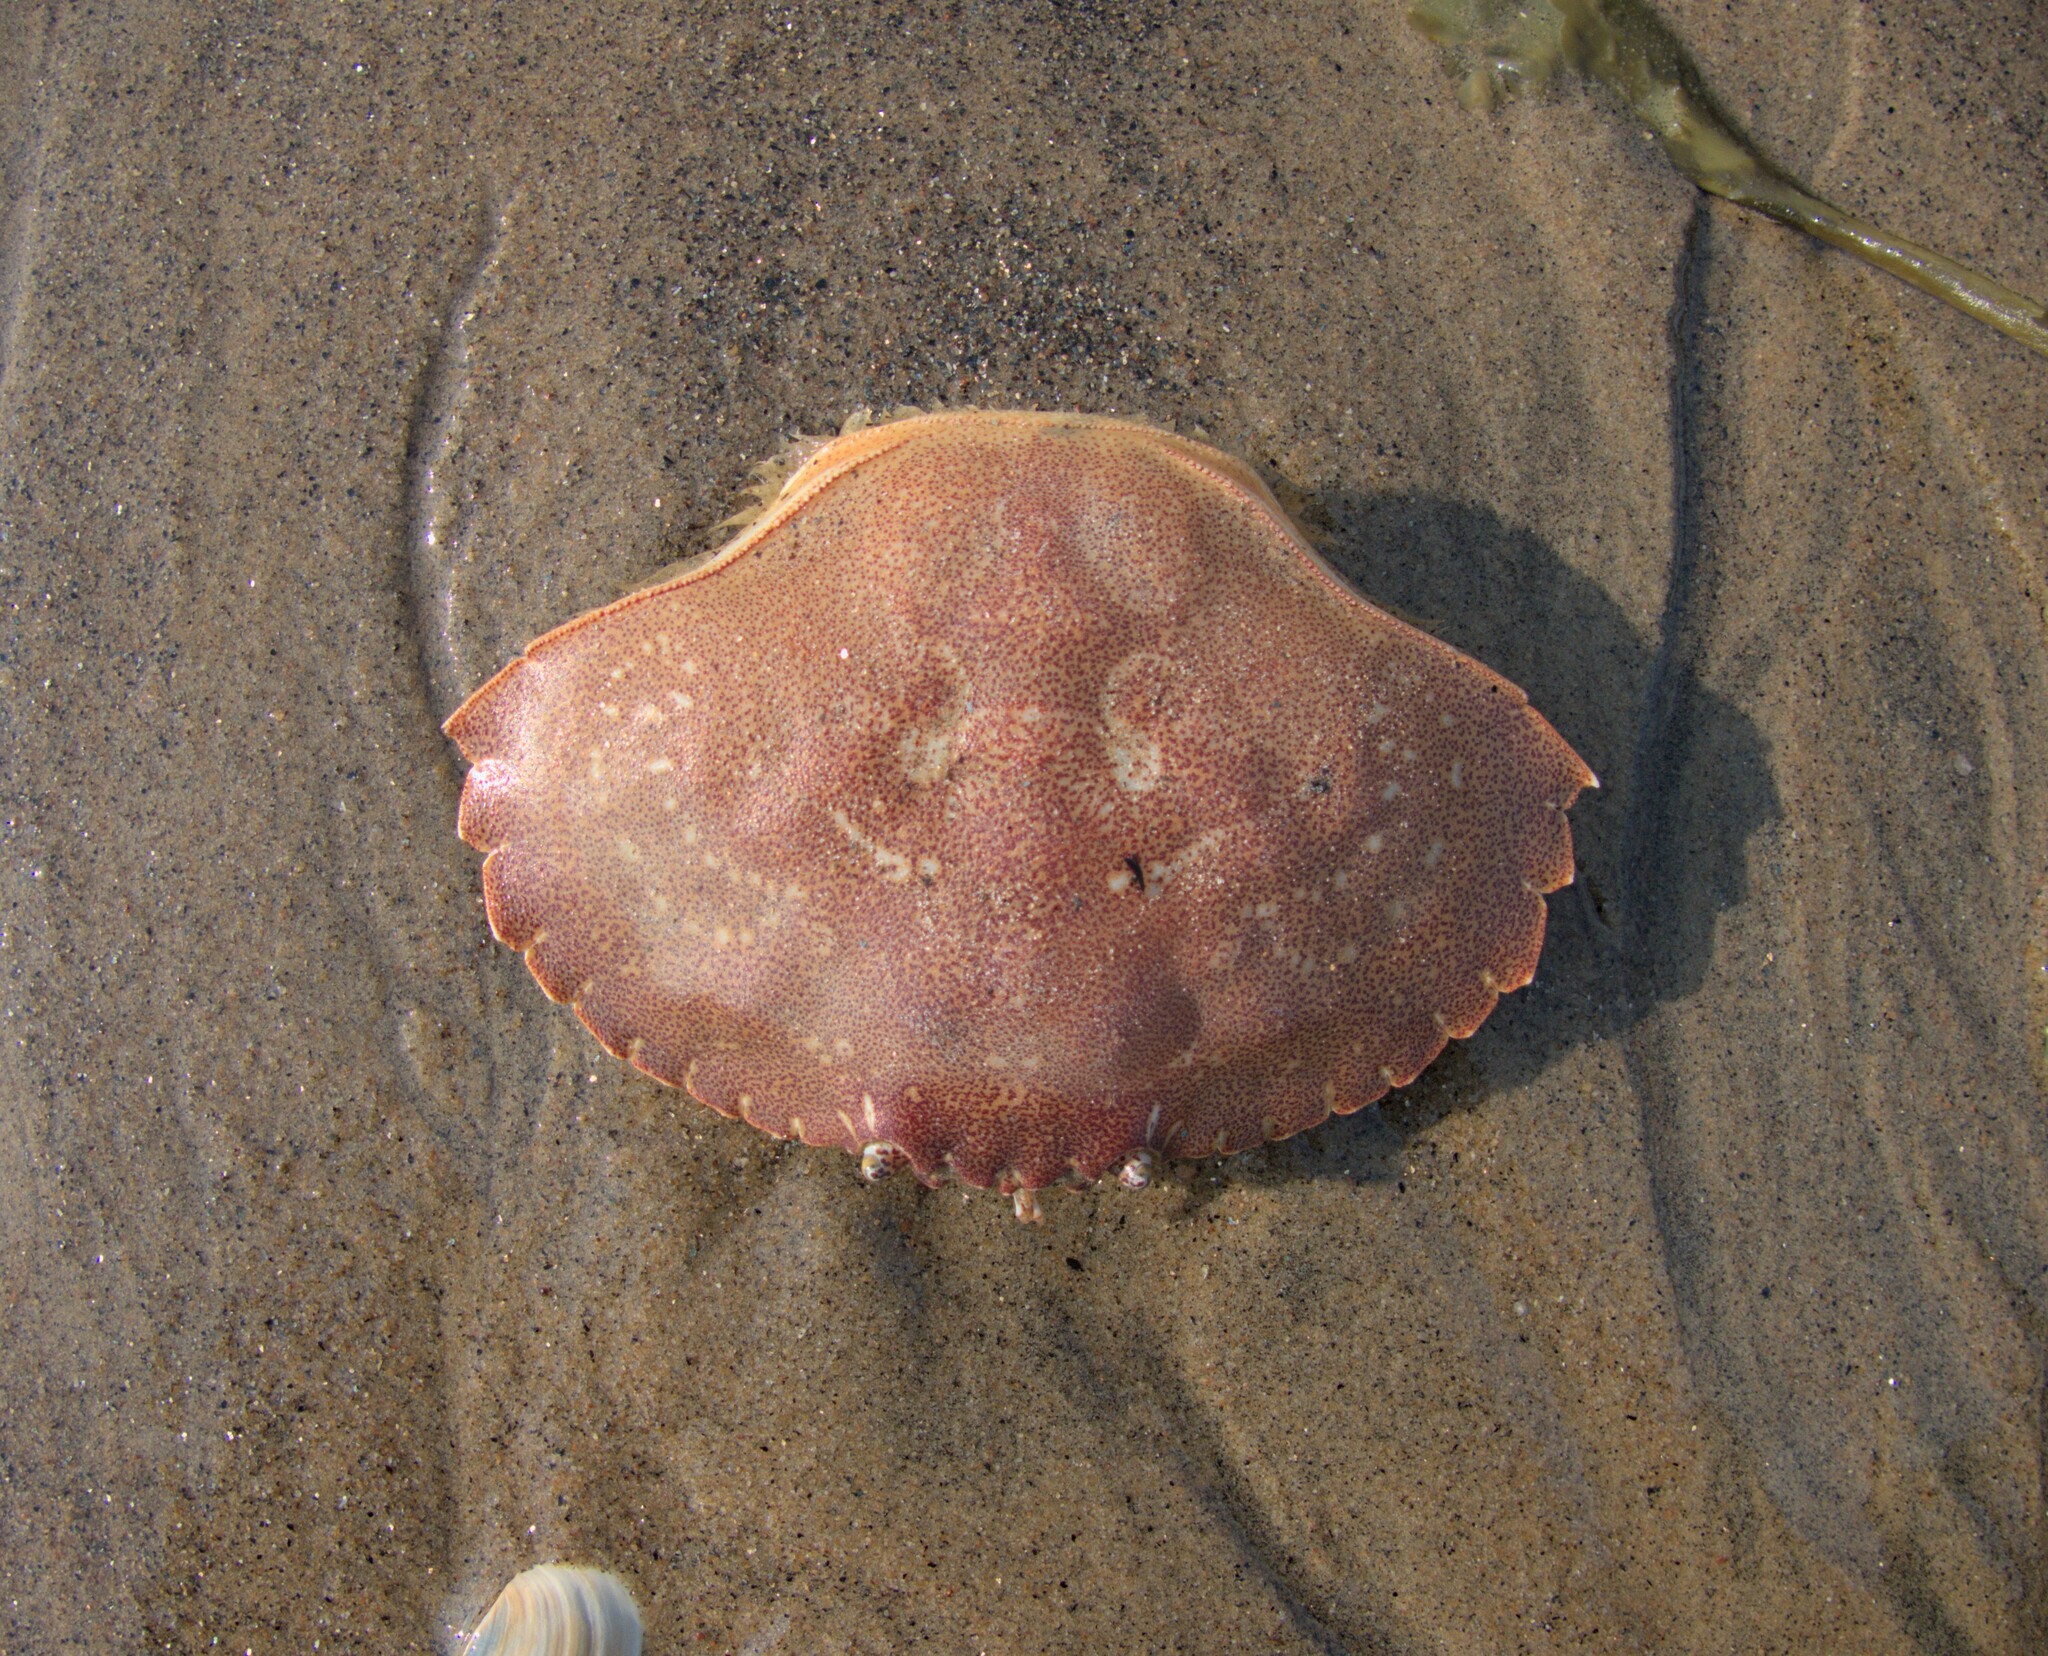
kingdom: Animalia
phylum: Arthropoda
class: Malacostraca
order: Decapoda
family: Cancridae
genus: Cancer
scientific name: Cancer irroratus
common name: Atlantic rock crab
